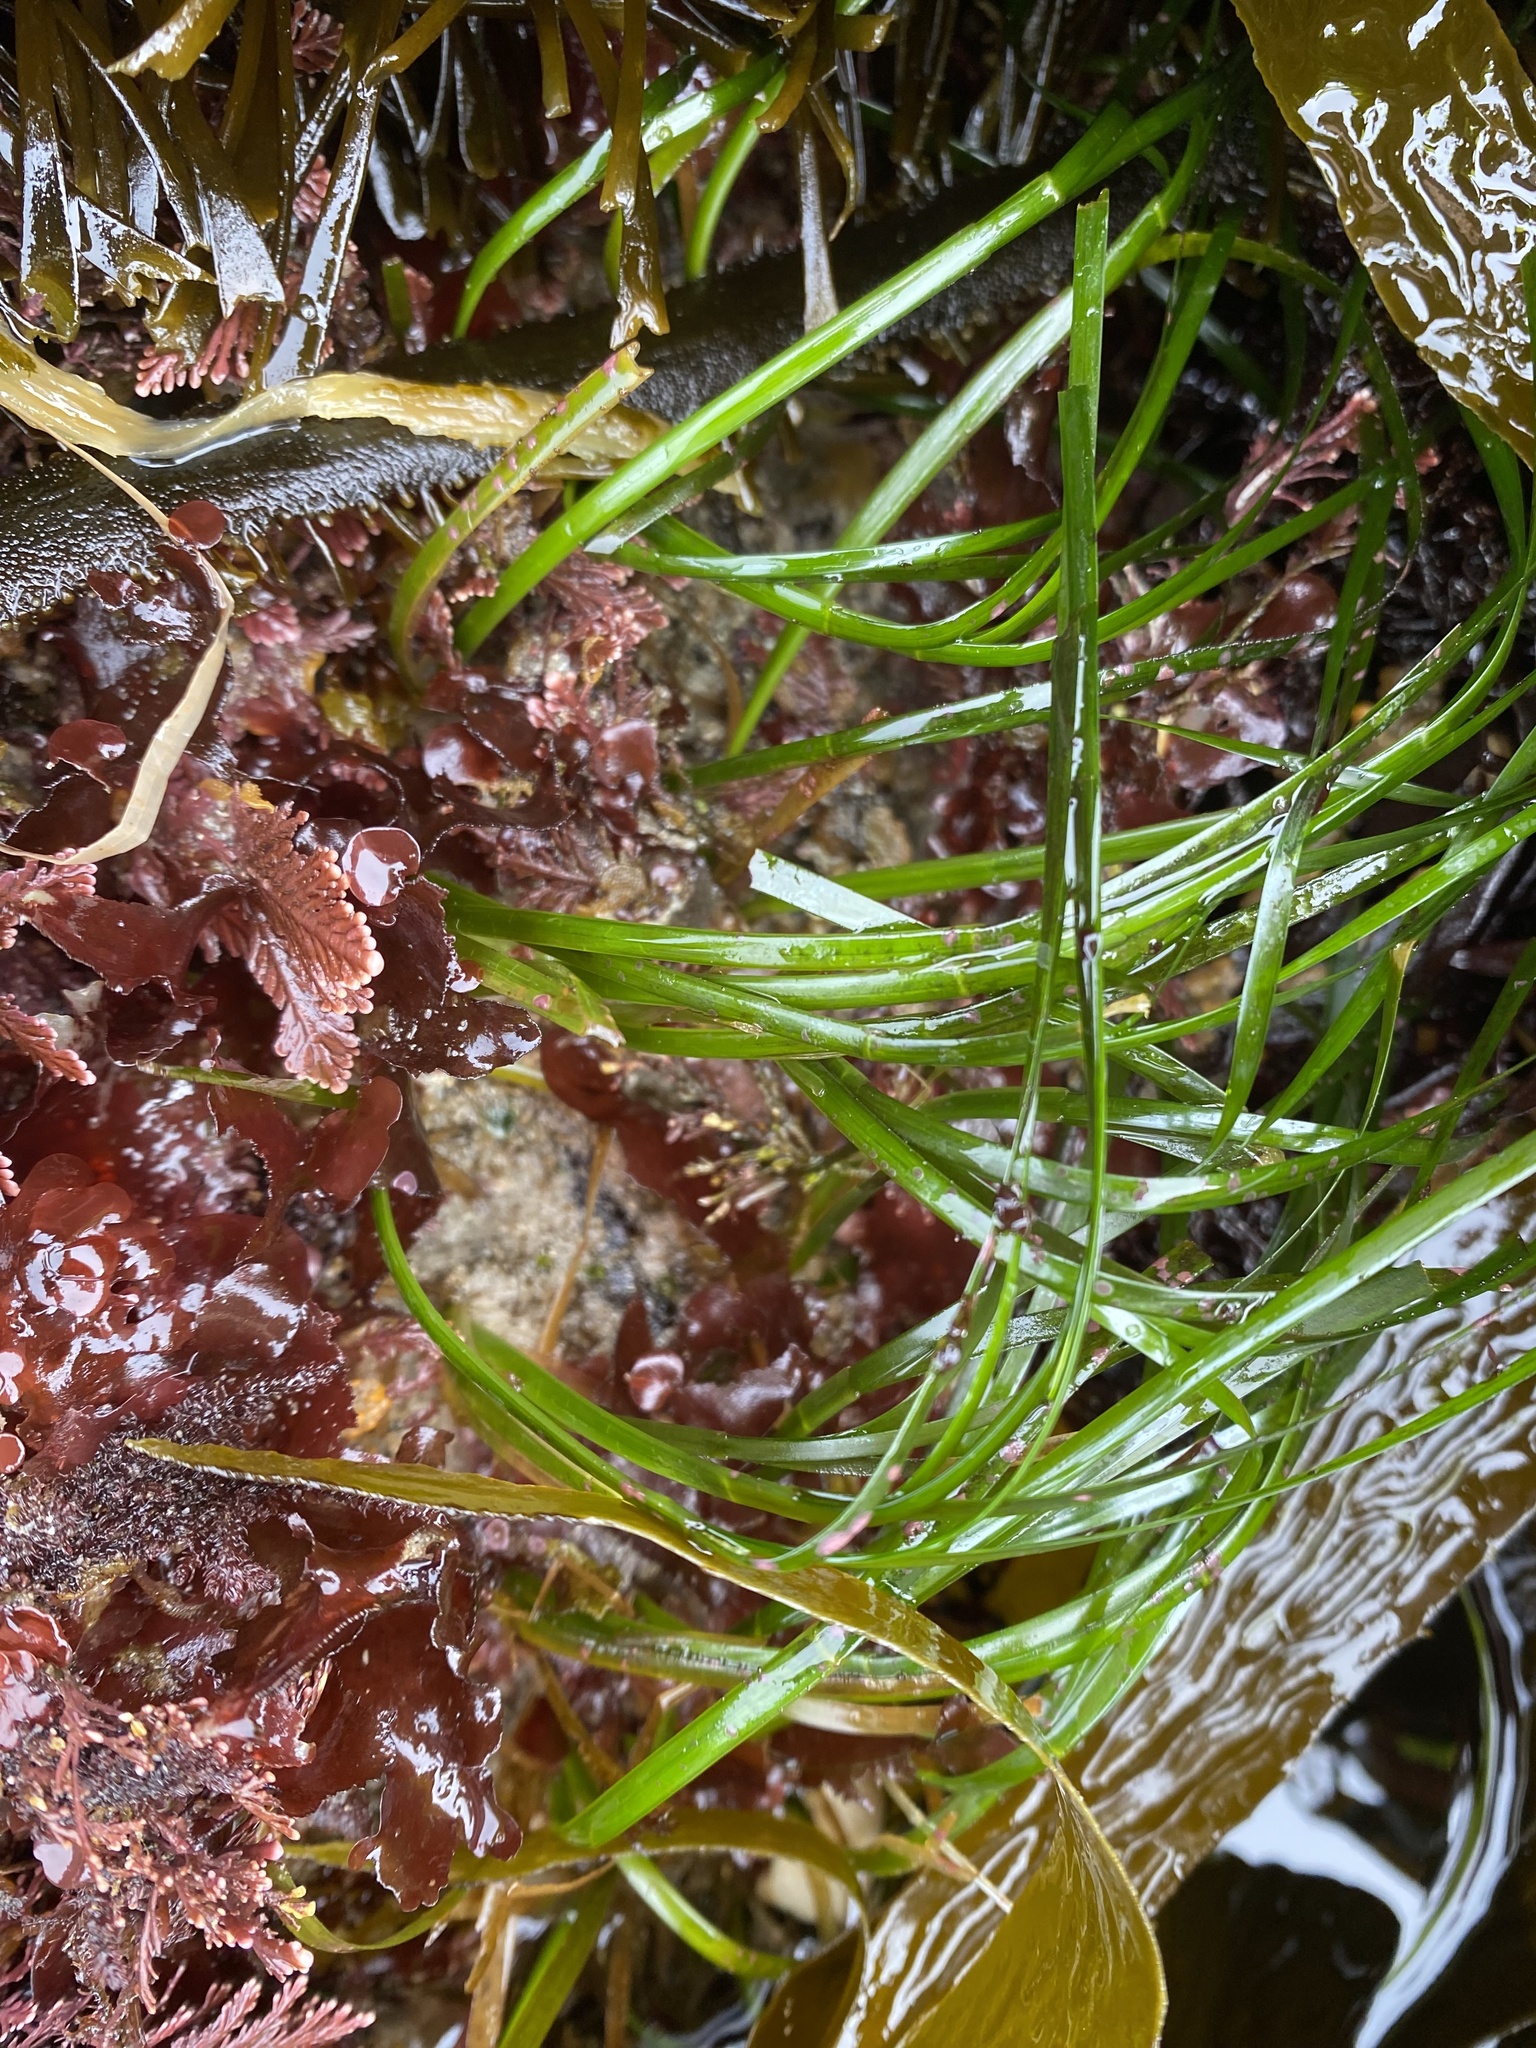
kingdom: Plantae
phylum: Tracheophyta
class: Liliopsida
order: Alismatales
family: Zosteraceae
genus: Phyllospadix
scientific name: Phyllospadix scouleri
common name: Species code: ps
